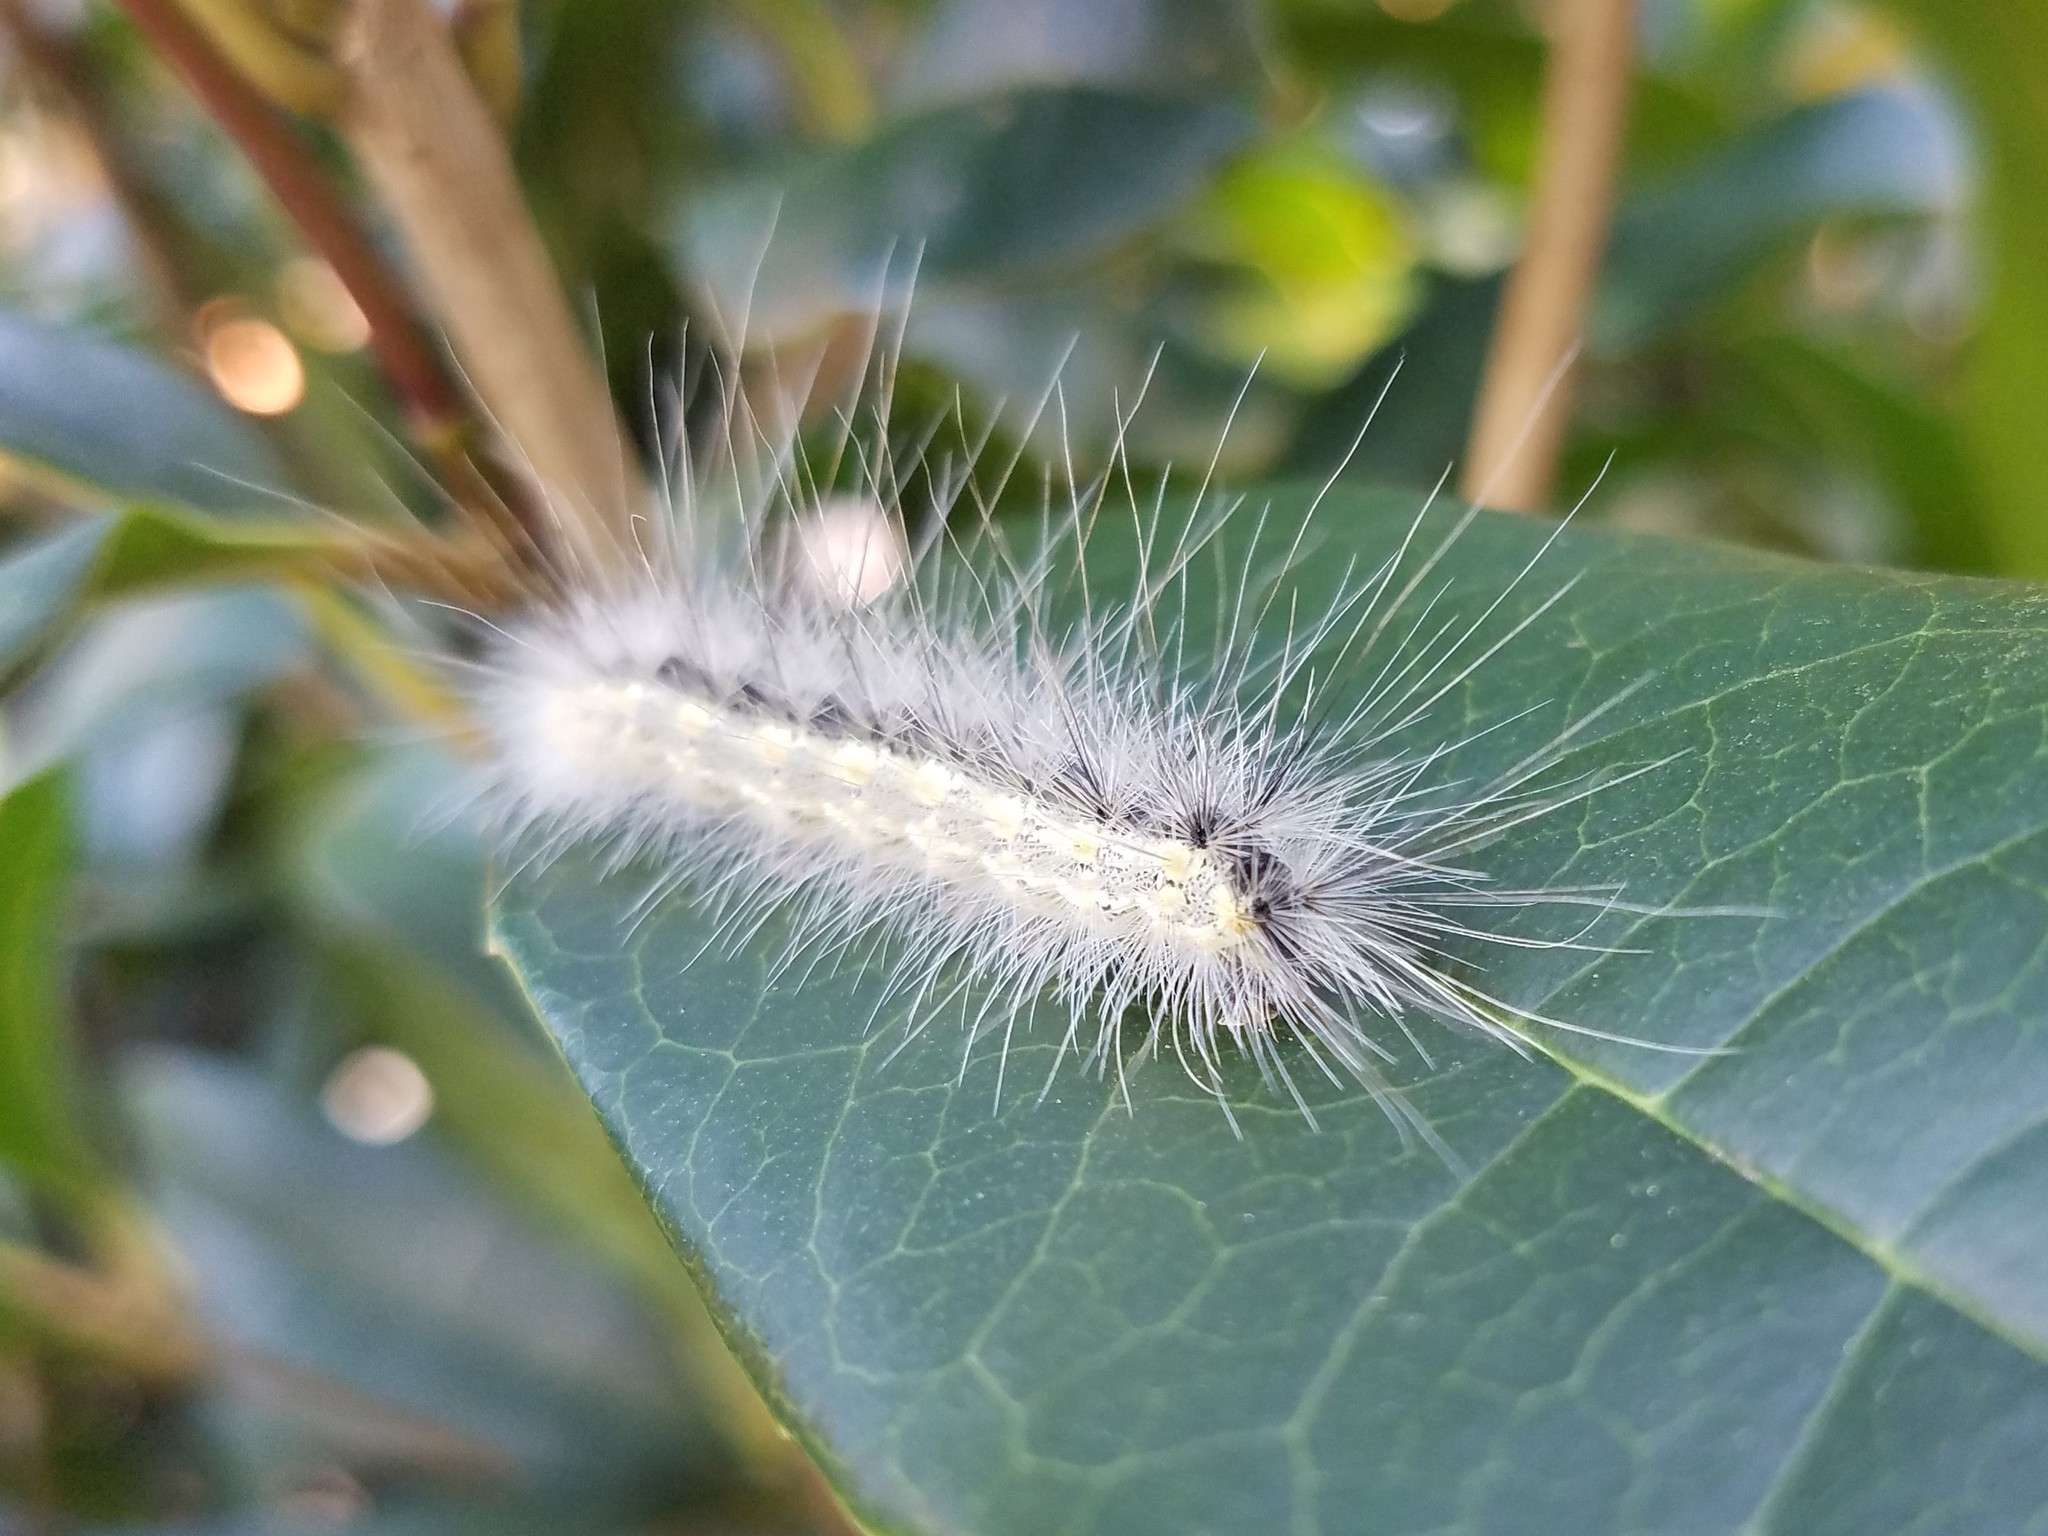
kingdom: Animalia
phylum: Arthropoda
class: Insecta
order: Lepidoptera
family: Erebidae
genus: Hyphantria
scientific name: Hyphantria cunea
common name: American white moth
